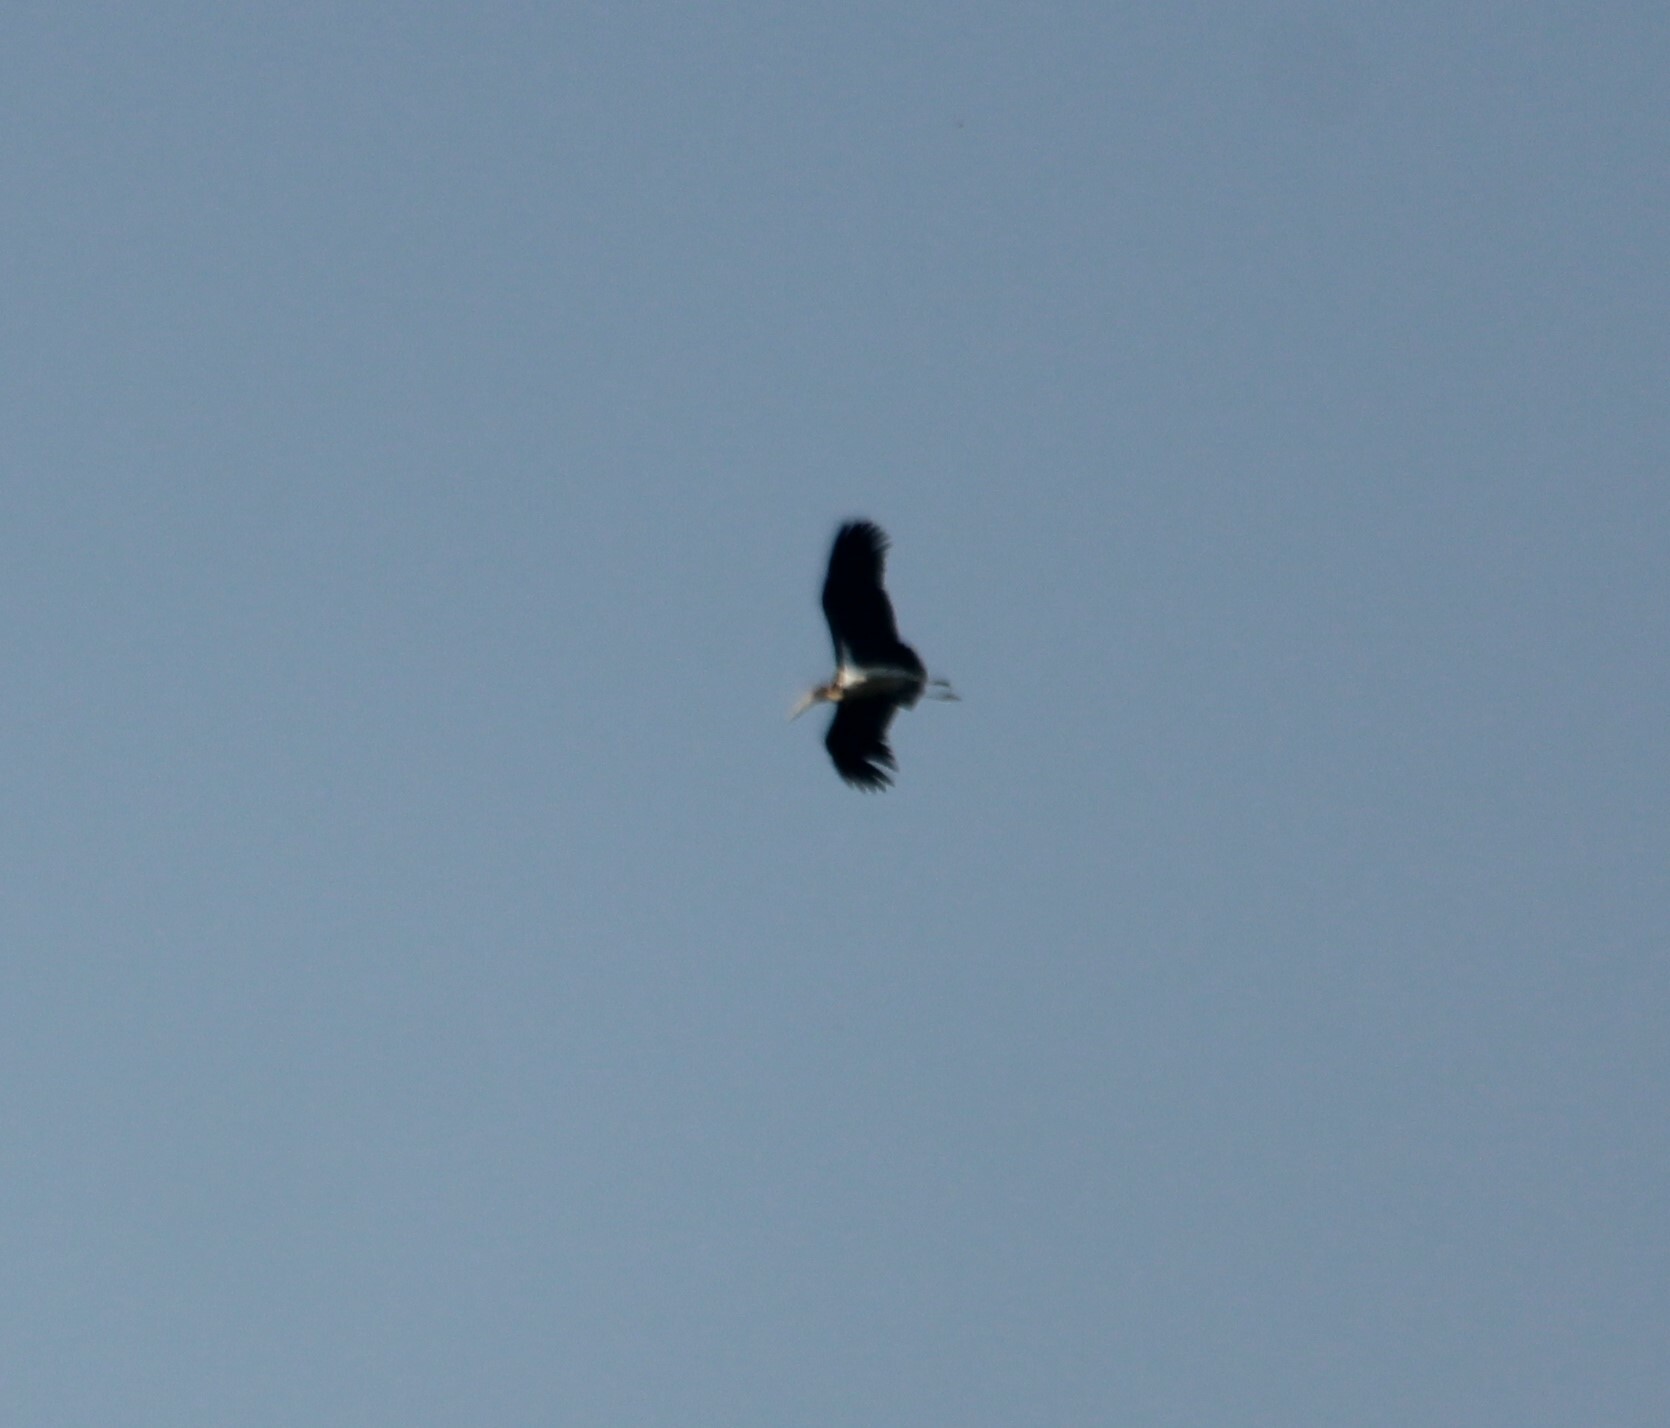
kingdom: Animalia
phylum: Chordata
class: Aves
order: Ciconiiformes
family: Ciconiidae
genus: Leptoptilos
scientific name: Leptoptilos javanicus
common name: Lesser adjutant
